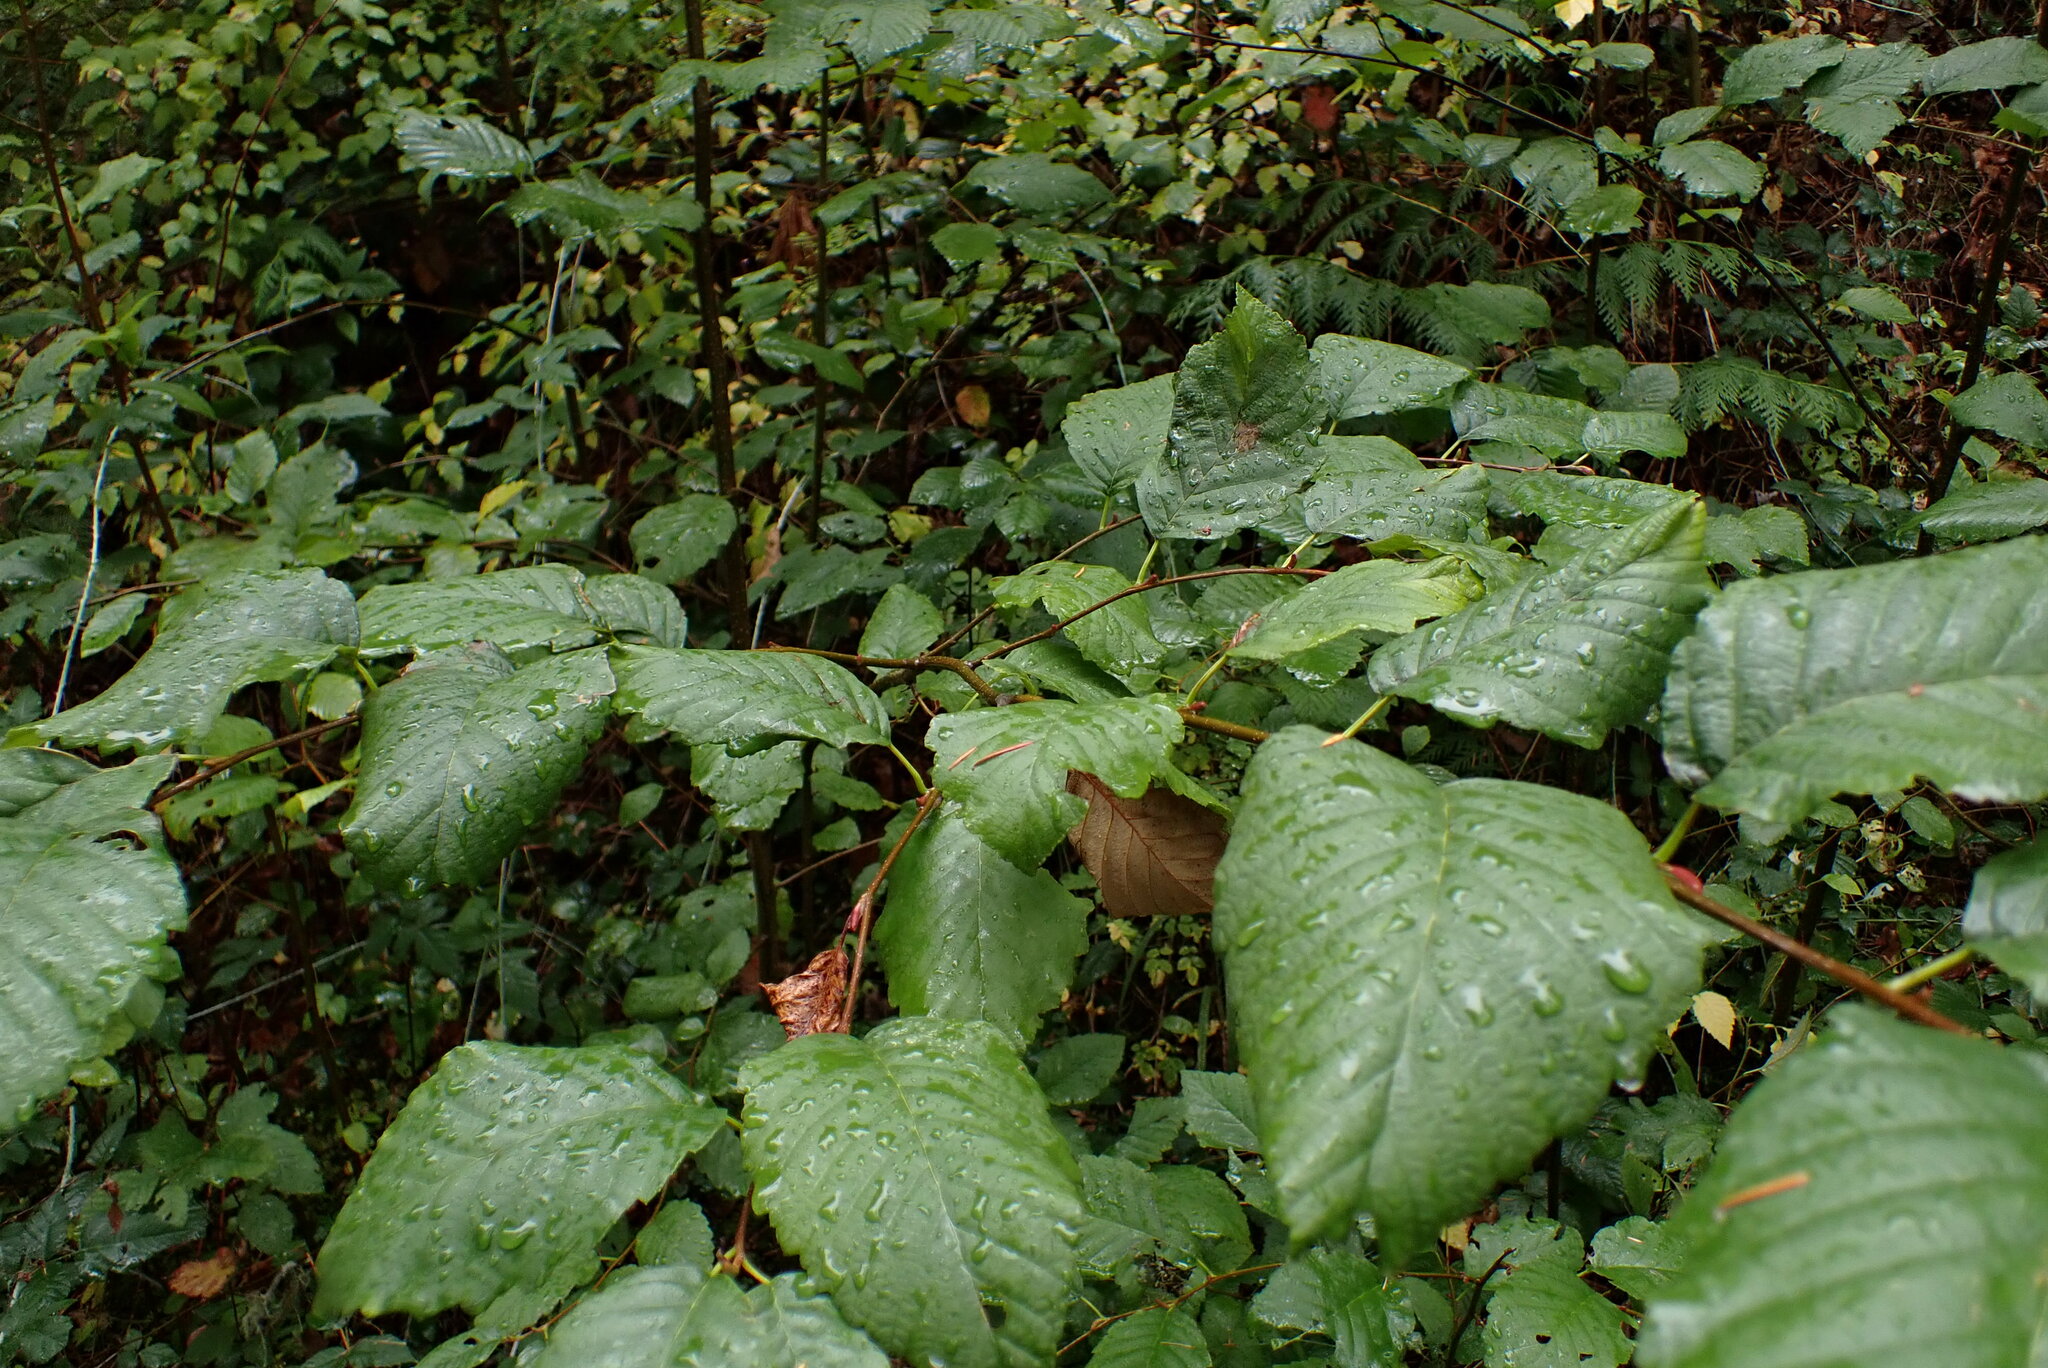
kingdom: Plantae
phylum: Tracheophyta
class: Magnoliopsida
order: Fagales
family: Betulaceae
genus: Alnus
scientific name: Alnus rubra
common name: Red alder
